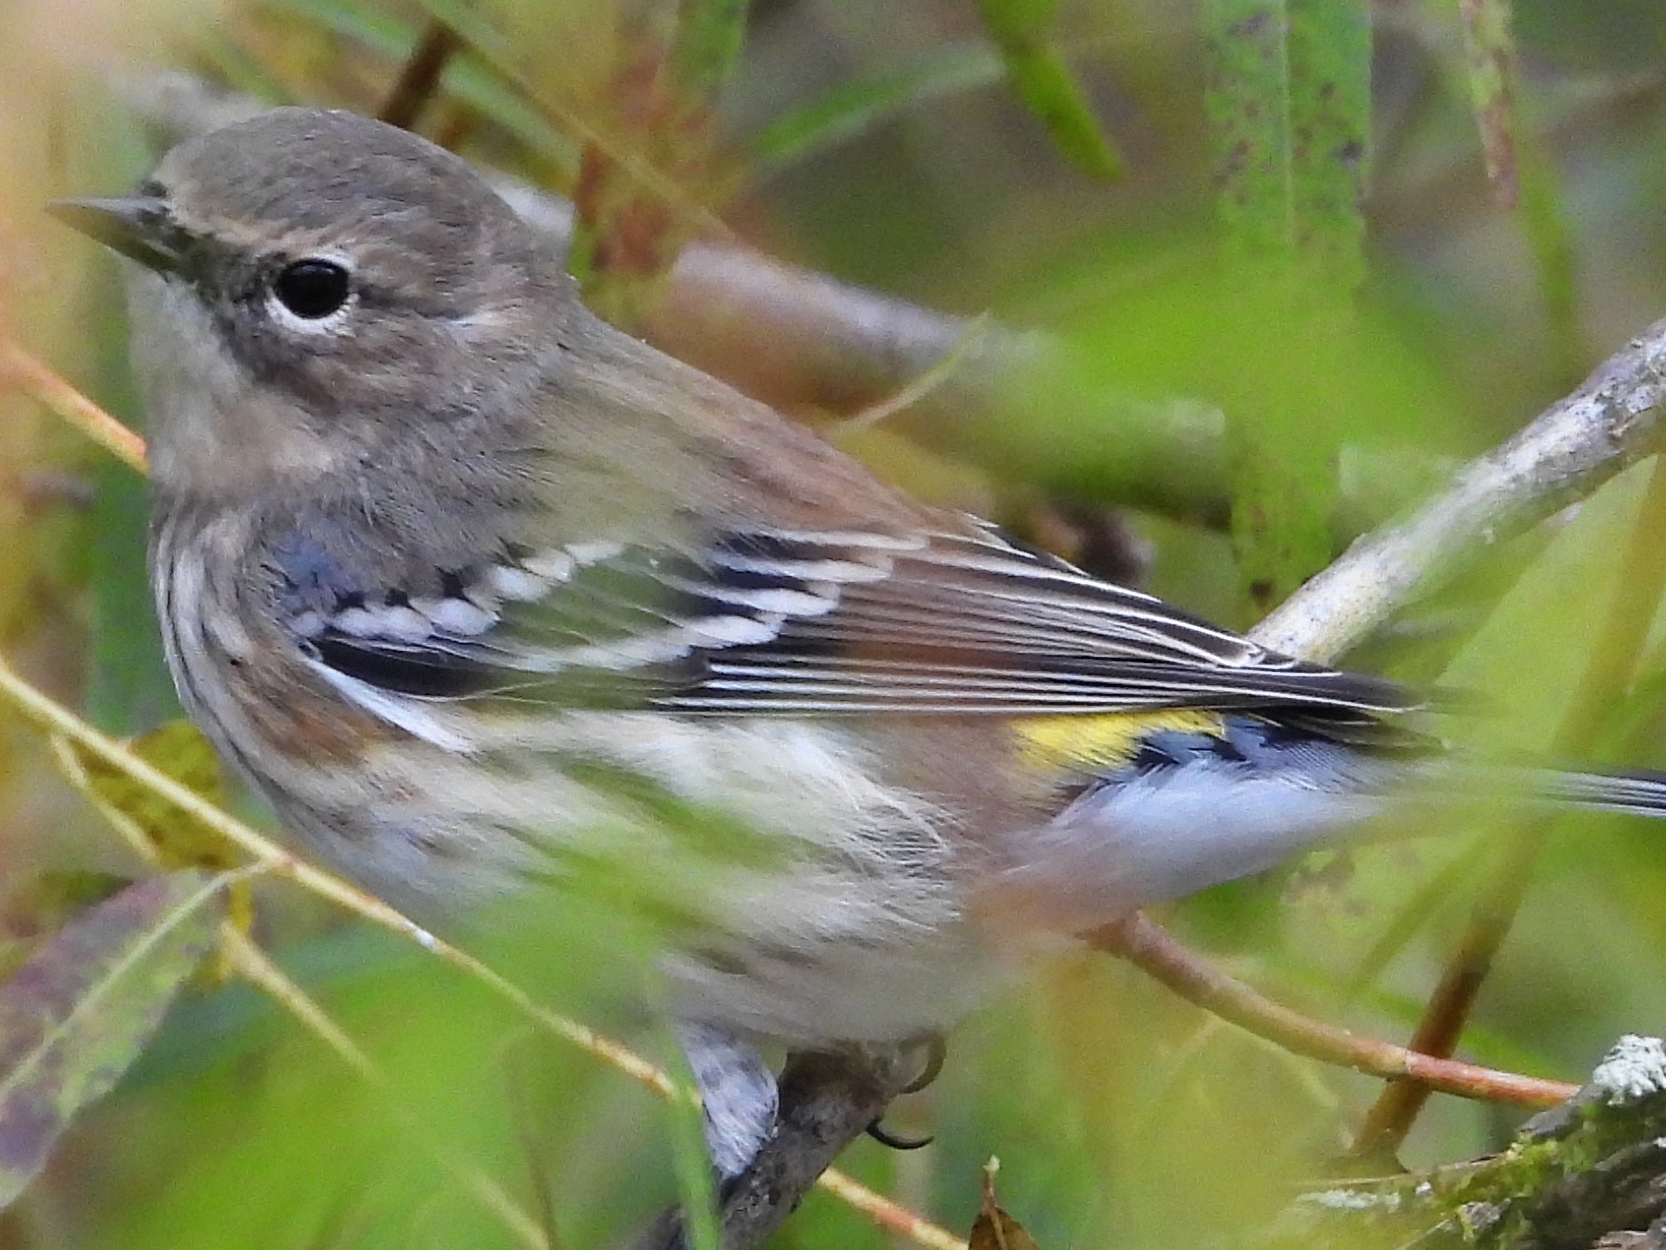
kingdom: Animalia
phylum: Chordata
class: Aves
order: Passeriformes
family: Parulidae
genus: Setophaga
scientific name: Setophaga coronata
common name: Myrtle warbler
